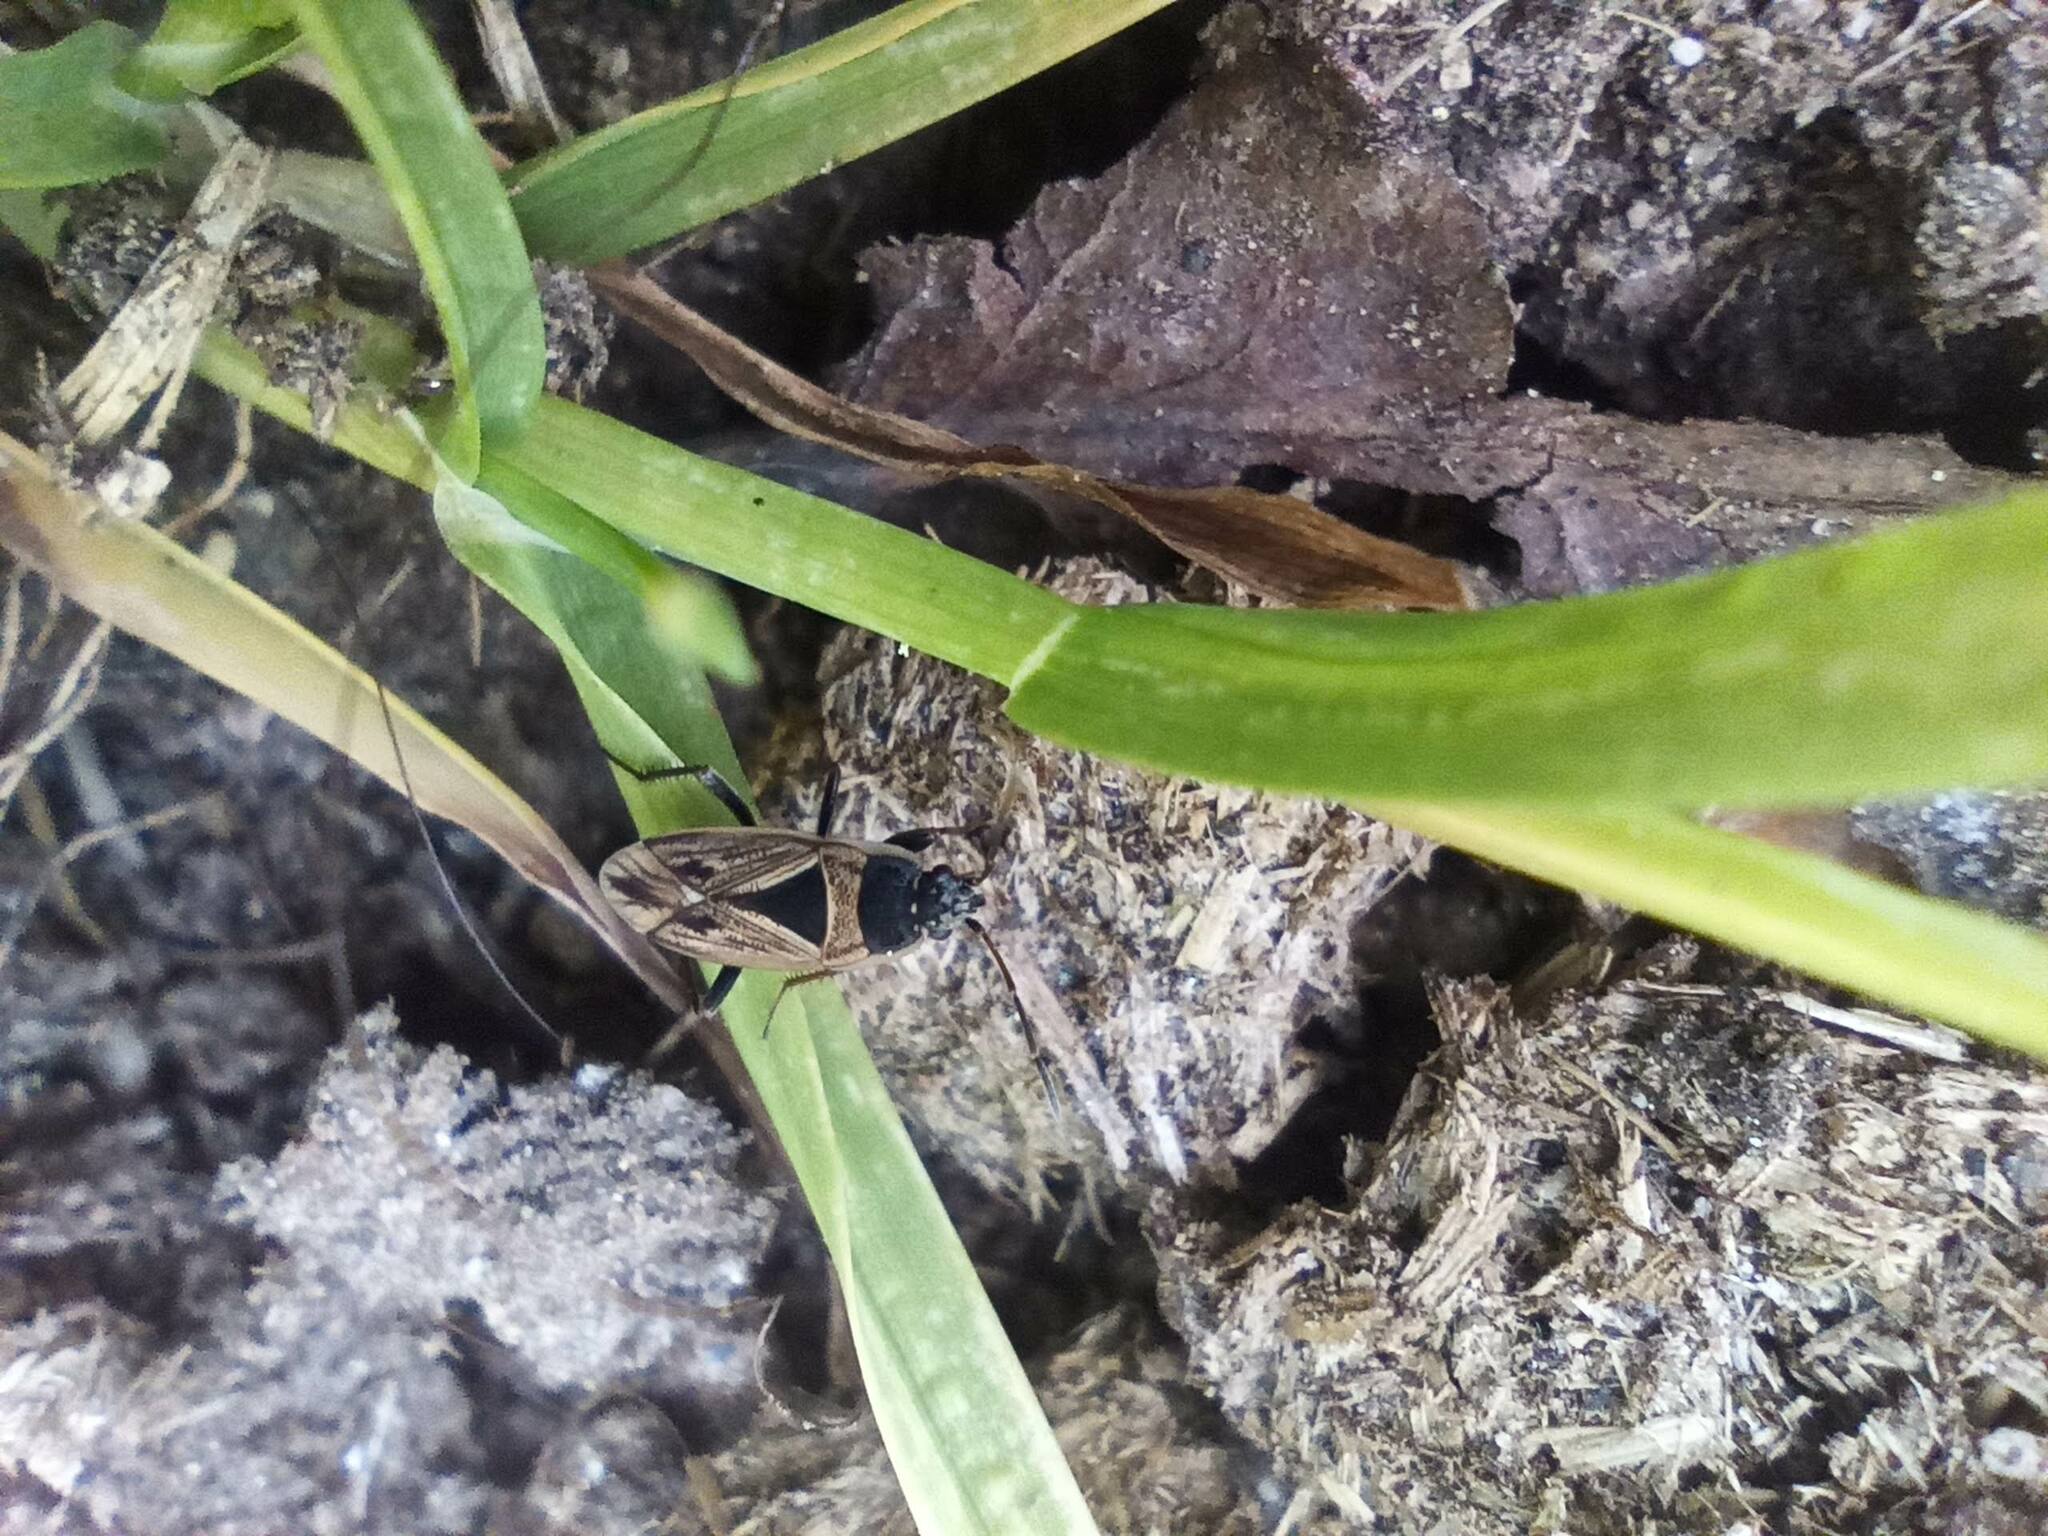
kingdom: Animalia
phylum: Arthropoda
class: Insecta
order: Hemiptera
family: Rhyparochromidae
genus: Xanthochilus
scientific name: Xanthochilus quadratus
